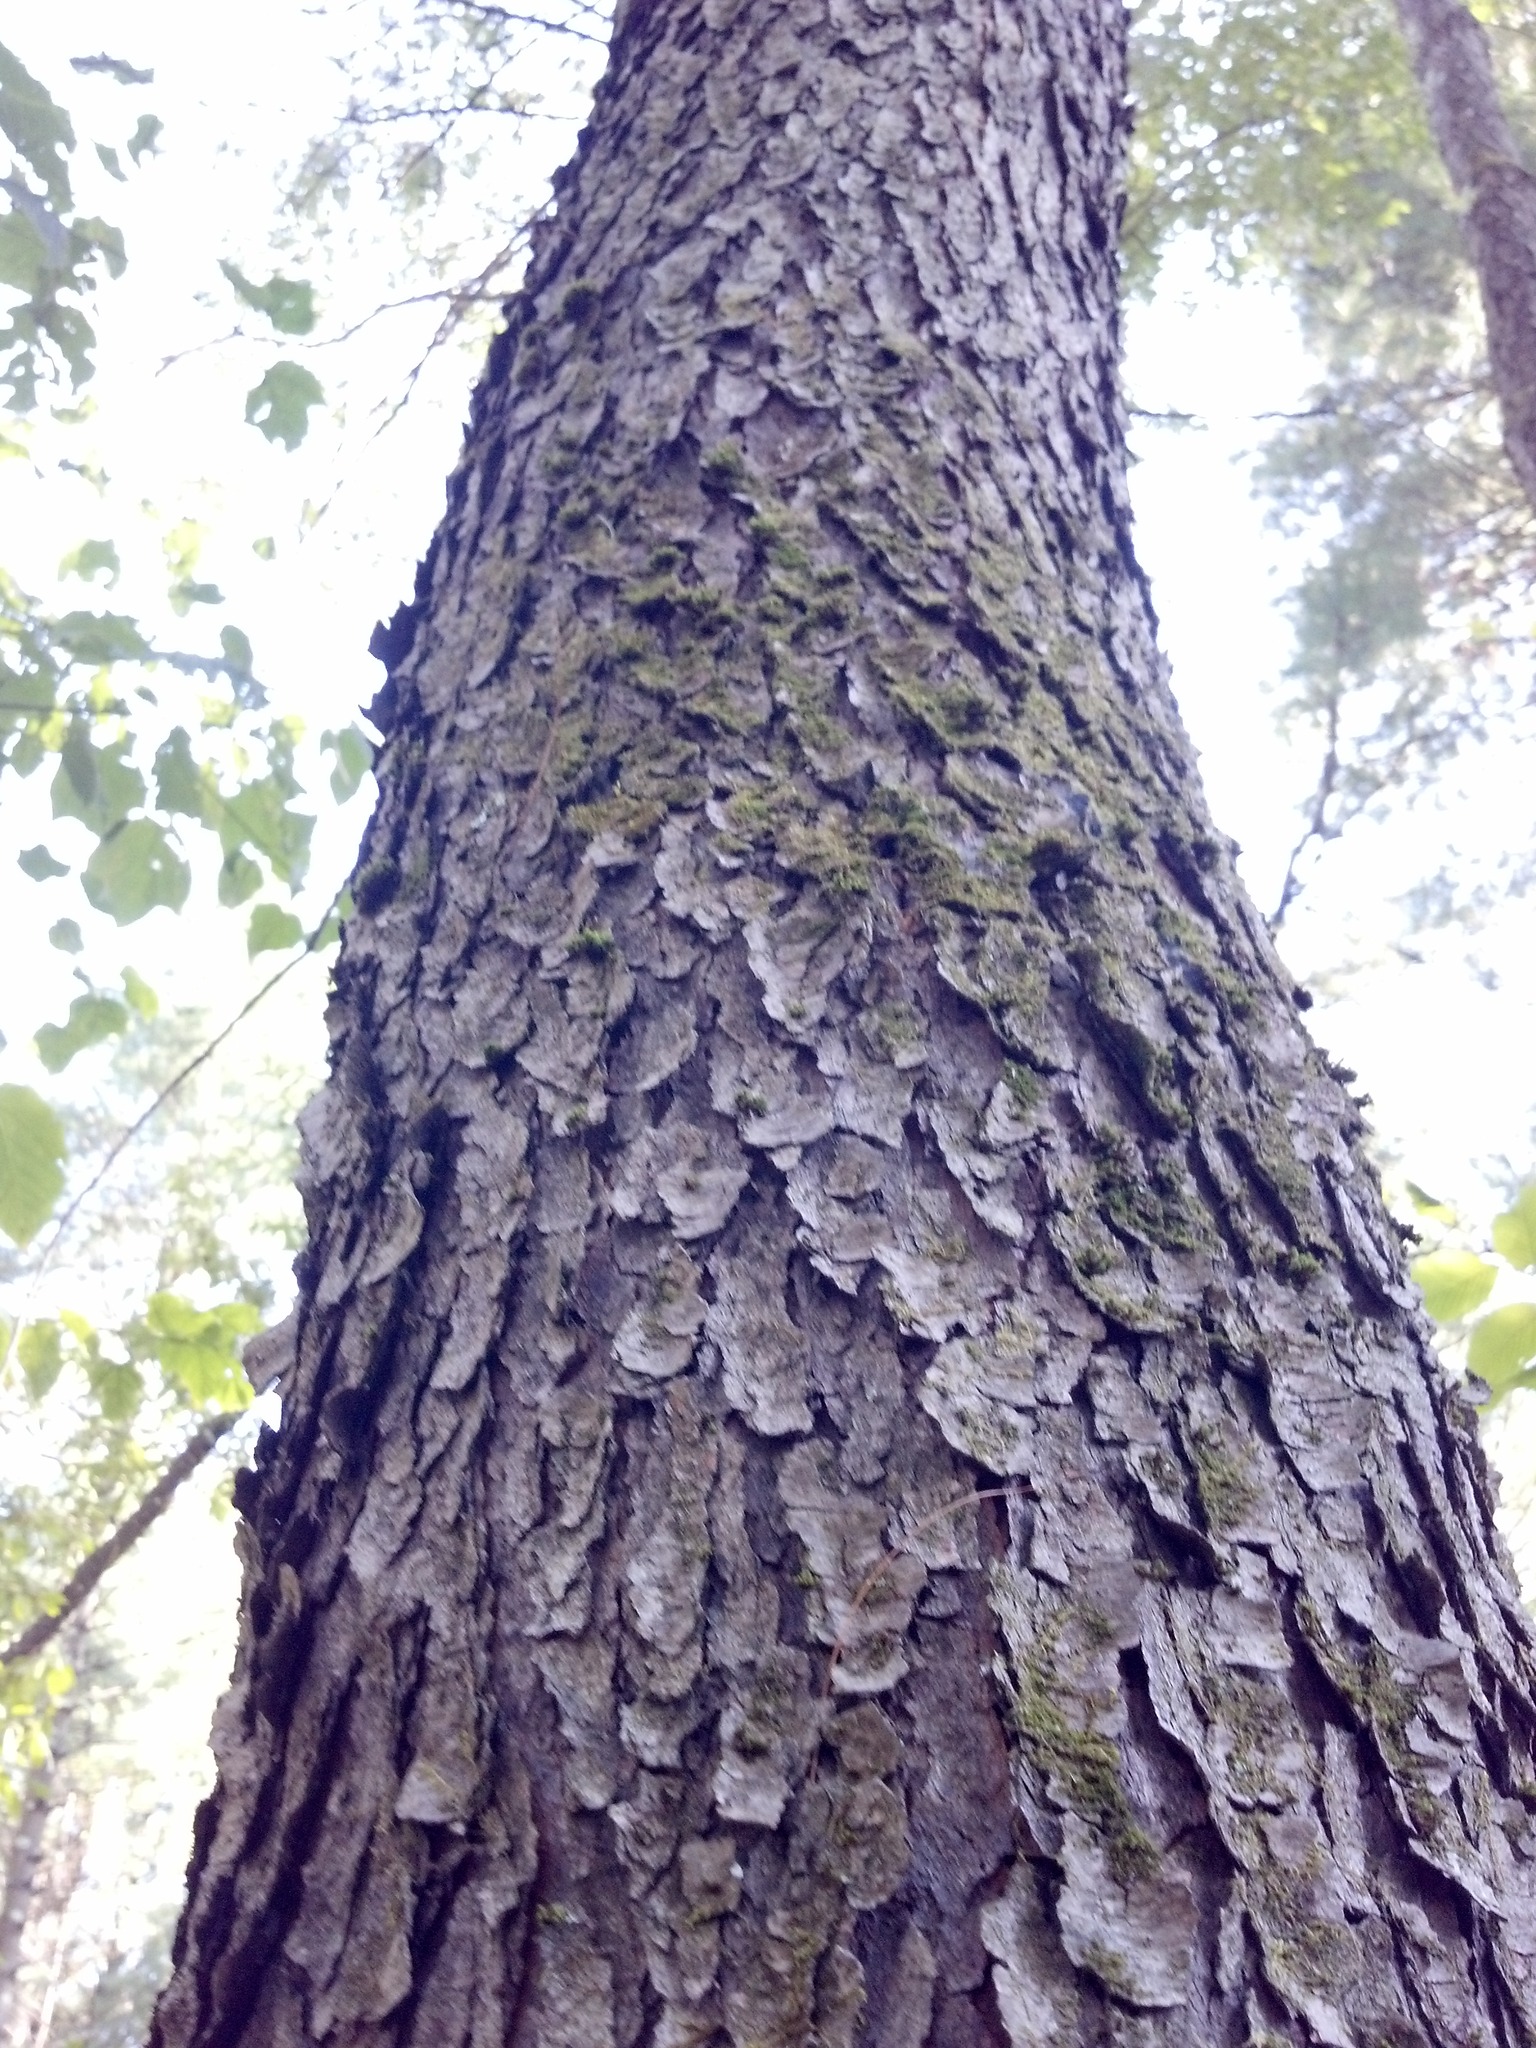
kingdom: Plantae
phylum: Tracheophyta
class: Magnoliopsida
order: Rosales
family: Rosaceae
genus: Prunus
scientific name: Prunus serotina
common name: Black cherry
